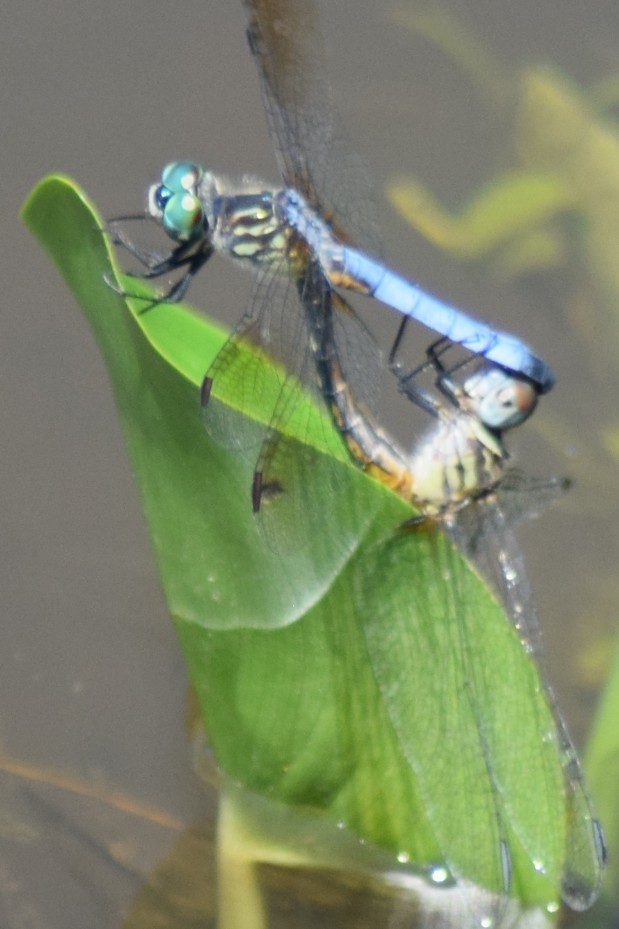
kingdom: Animalia
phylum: Arthropoda
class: Insecta
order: Odonata
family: Libellulidae
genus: Pachydiplax
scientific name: Pachydiplax longipennis
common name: Blue dasher
